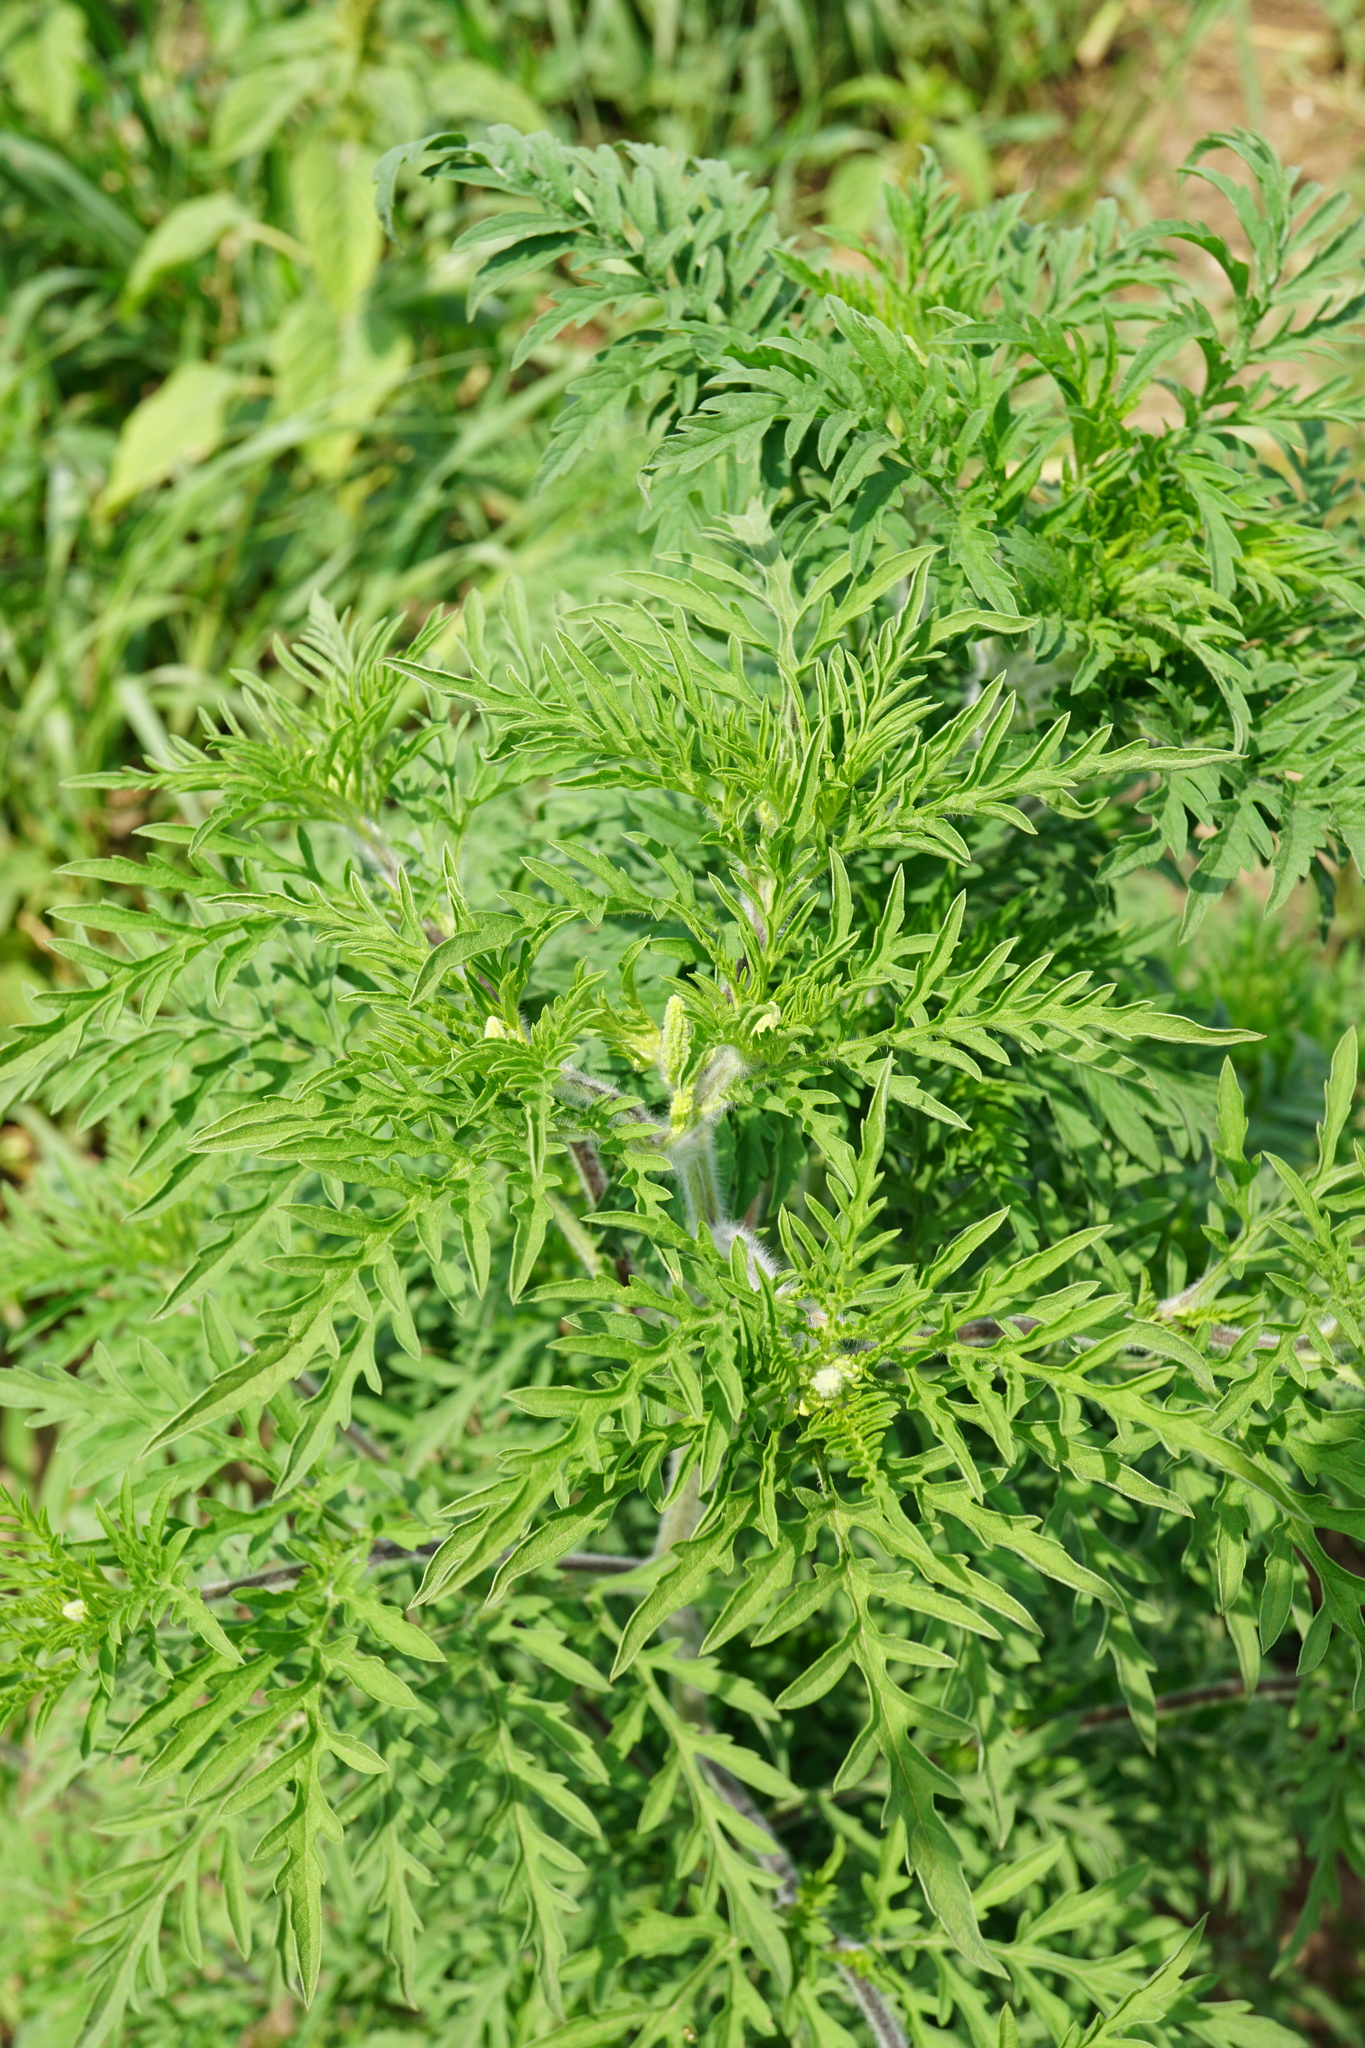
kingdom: Plantae
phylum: Tracheophyta
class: Magnoliopsida
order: Asterales
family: Asteraceae
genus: Ambrosia
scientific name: Ambrosia artemisiifolia
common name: Annual ragweed
